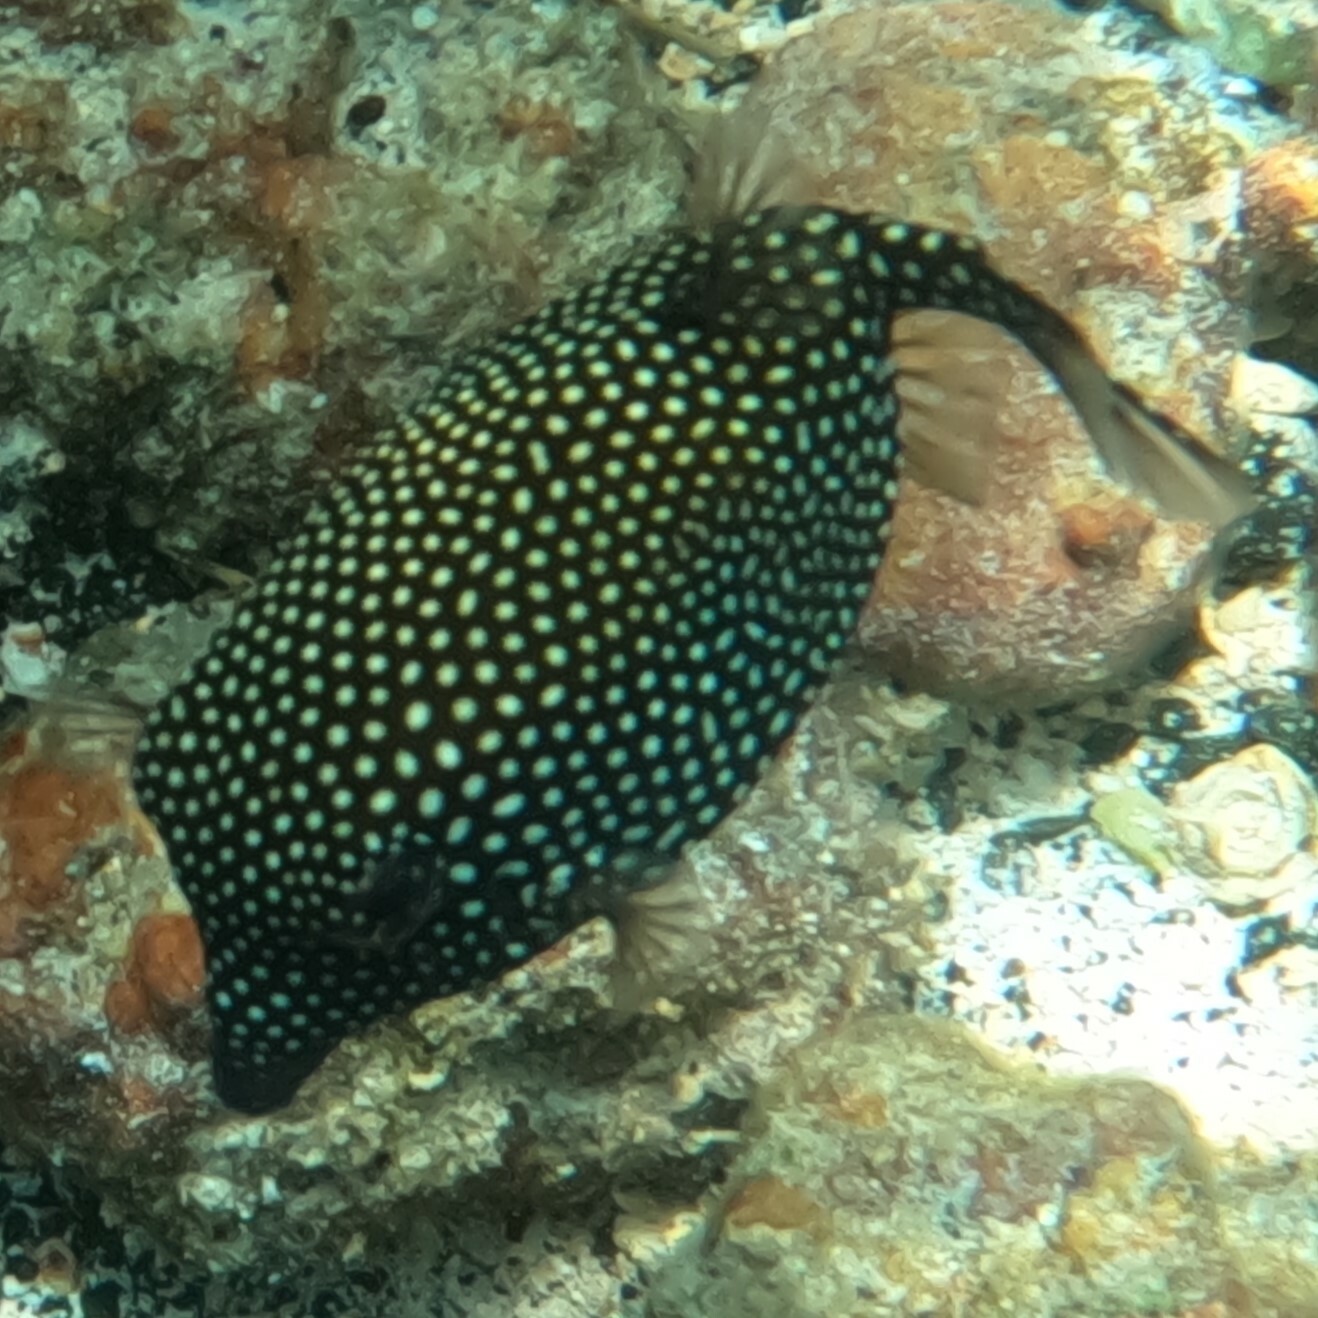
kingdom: Animalia
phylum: Chordata
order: Tetraodontiformes
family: Ostraciidae
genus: Ostracion
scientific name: Ostracion meleagris
